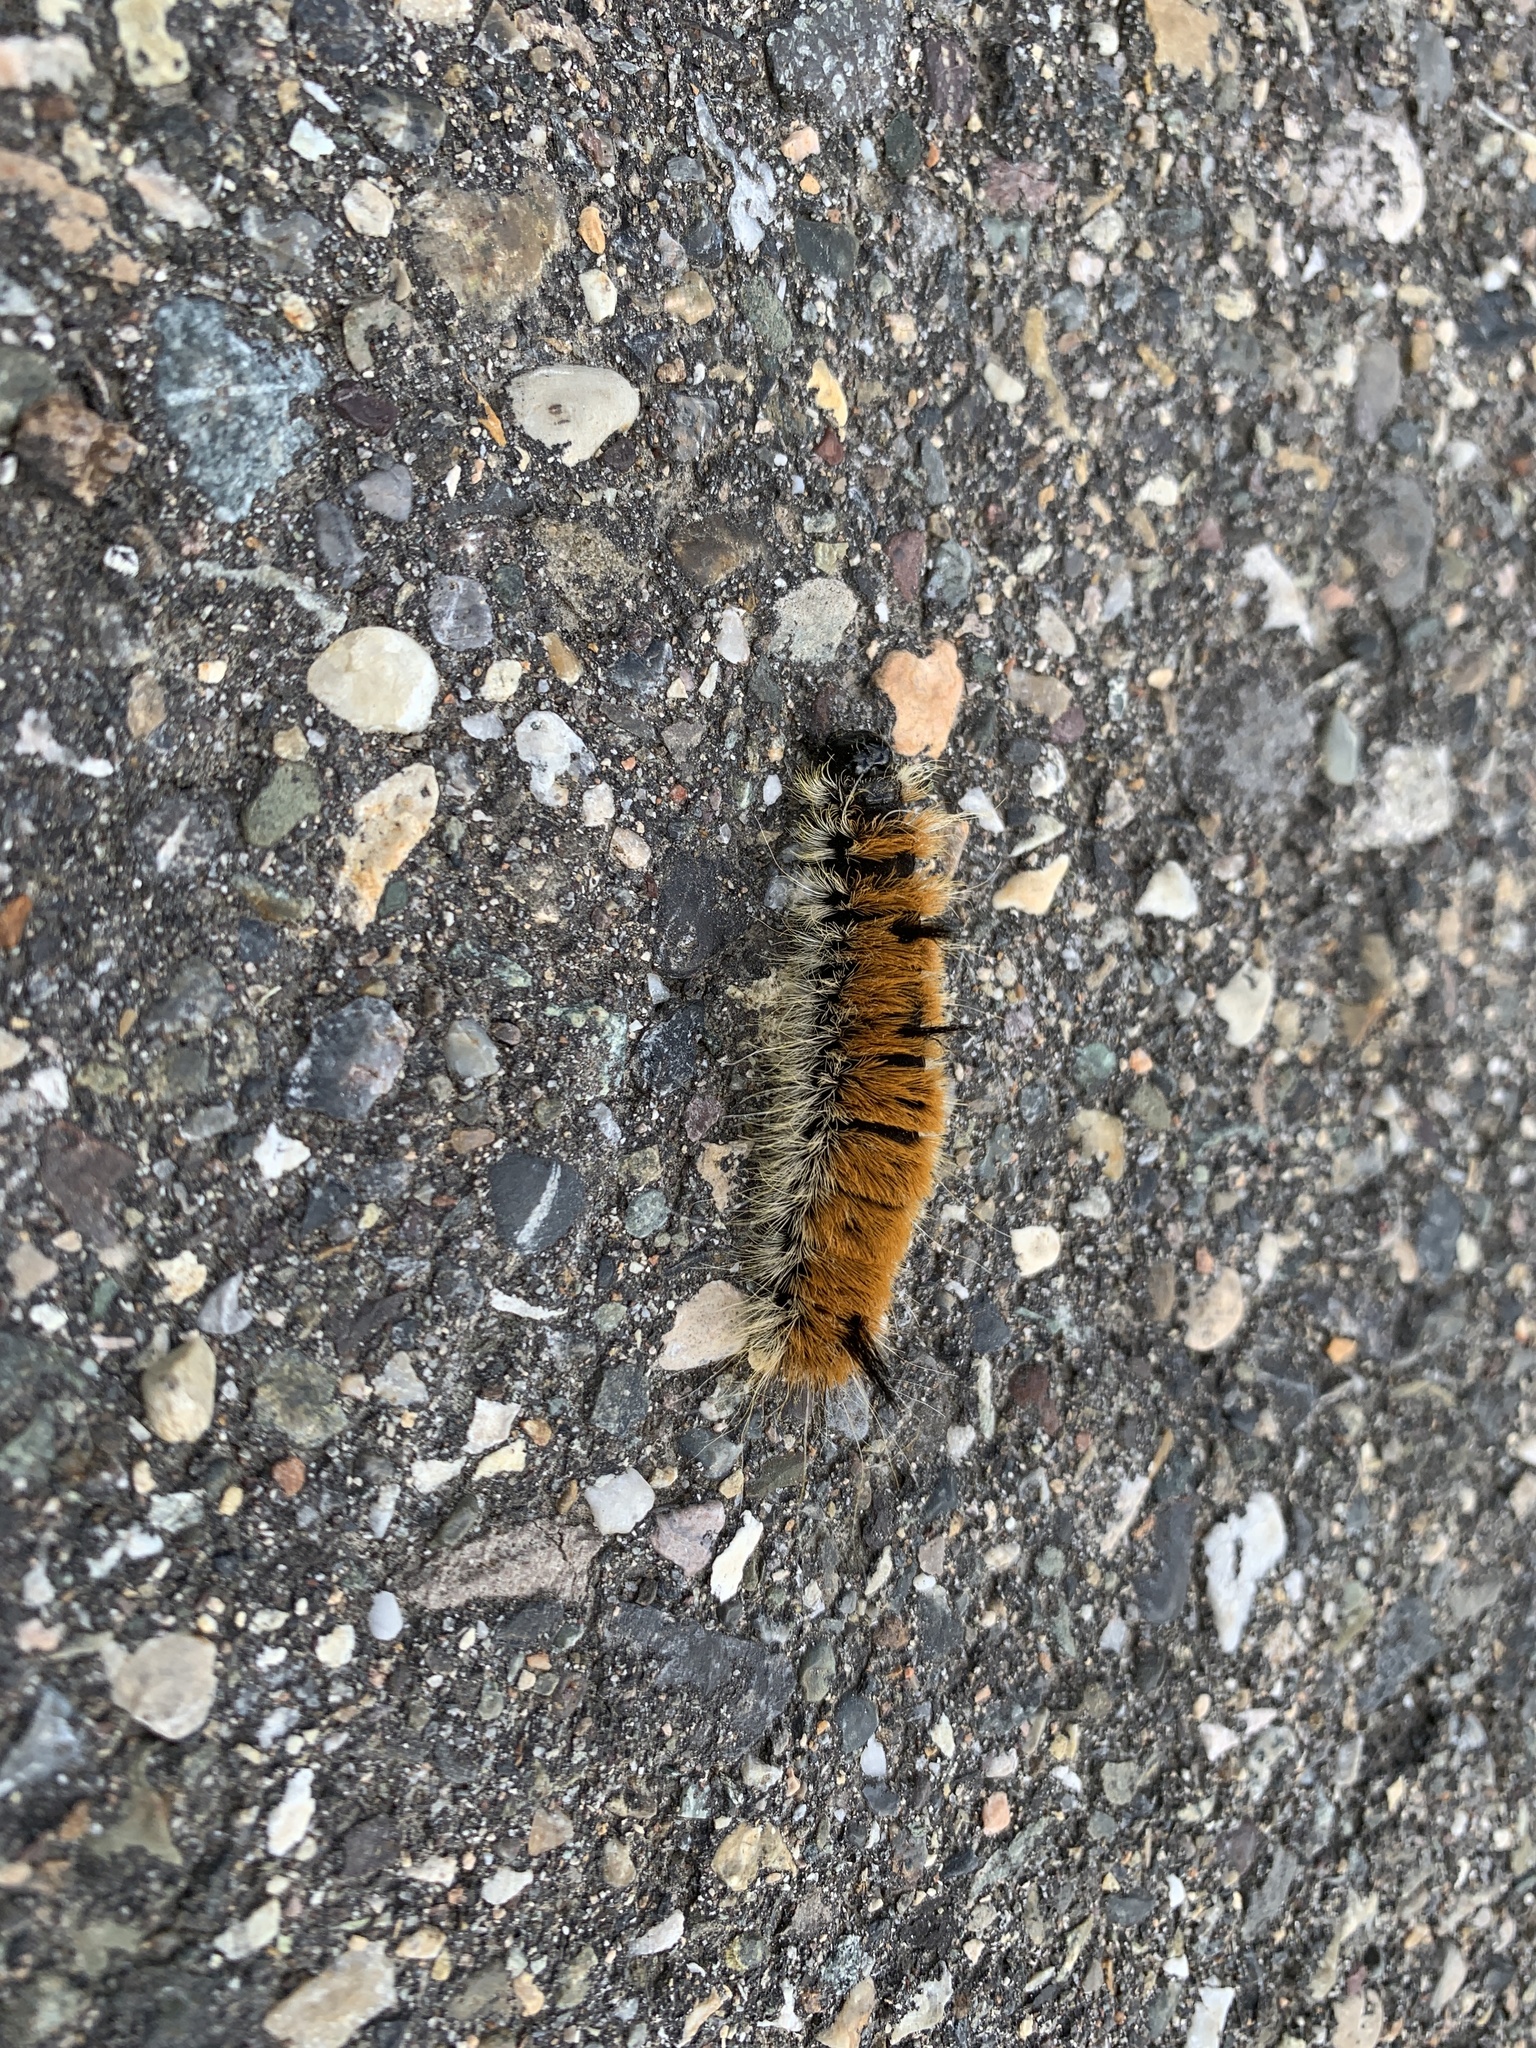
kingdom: Animalia
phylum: Arthropoda
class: Insecta
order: Lepidoptera
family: Noctuidae
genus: Acronicta
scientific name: Acronicta insita
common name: Large gray dagger
